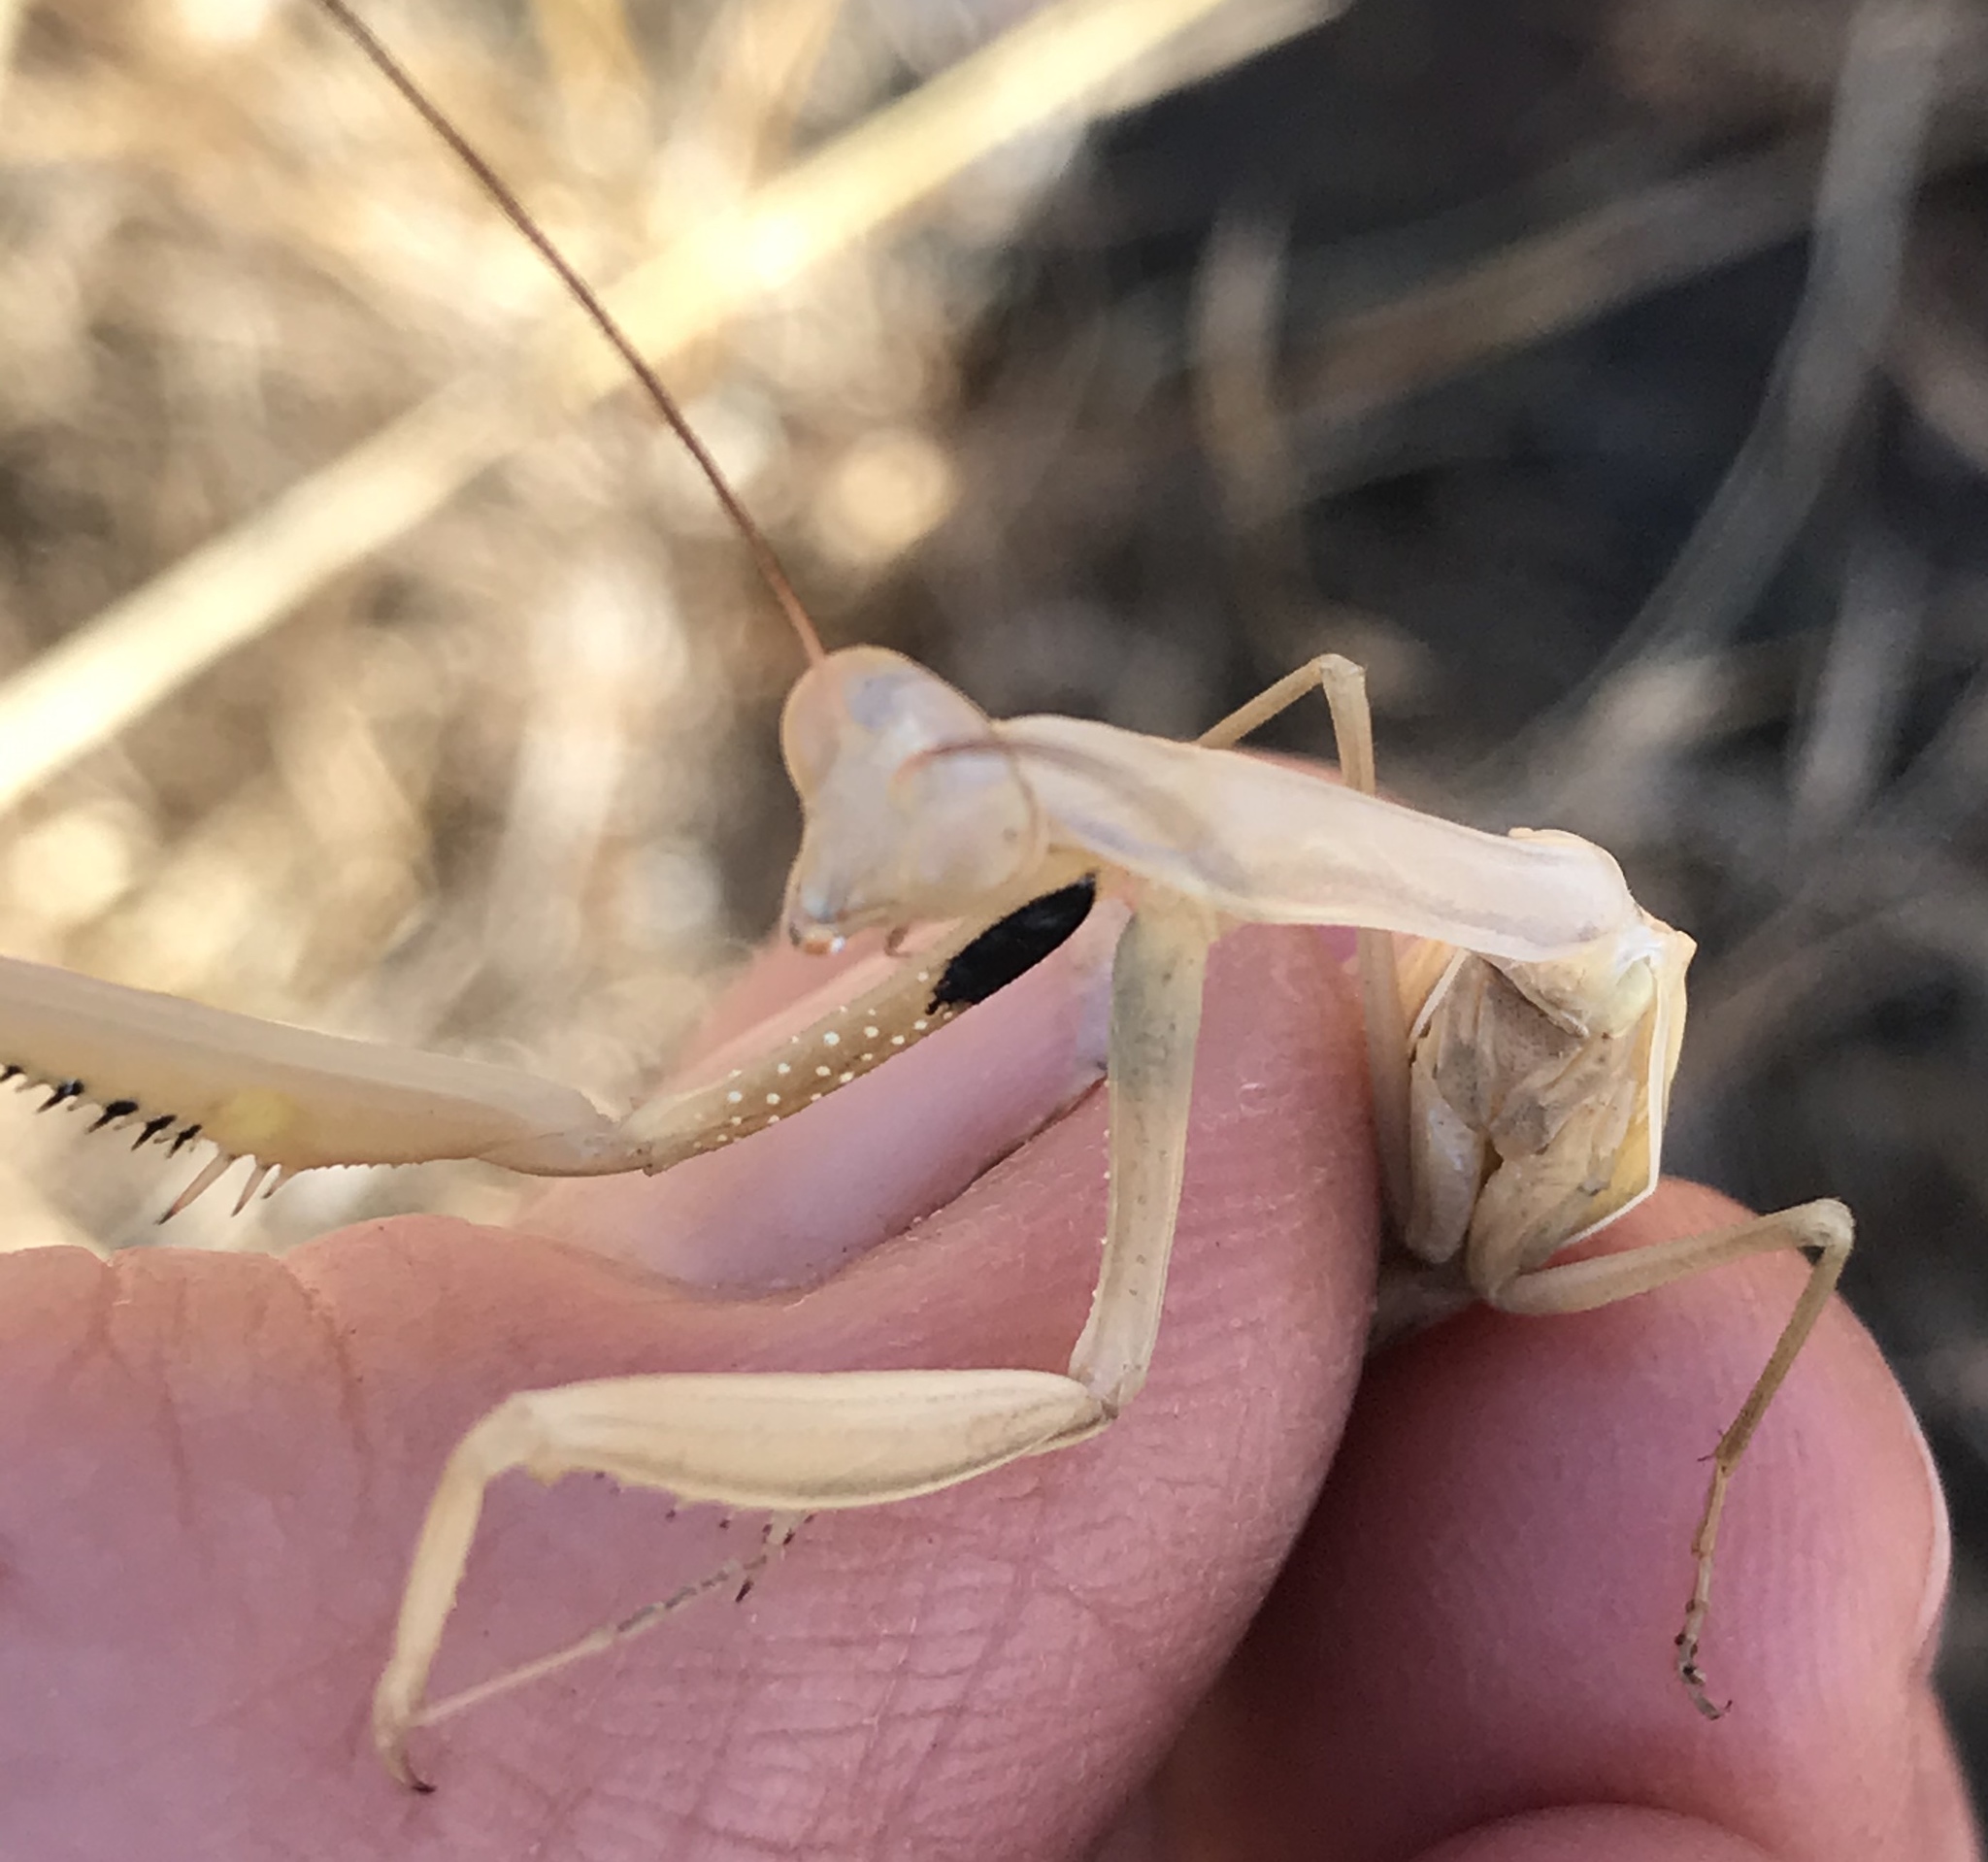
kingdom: Animalia
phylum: Arthropoda
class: Insecta
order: Mantodea
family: Mantidae
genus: Mantis
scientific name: Mantis religiosa
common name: Praying mantis
